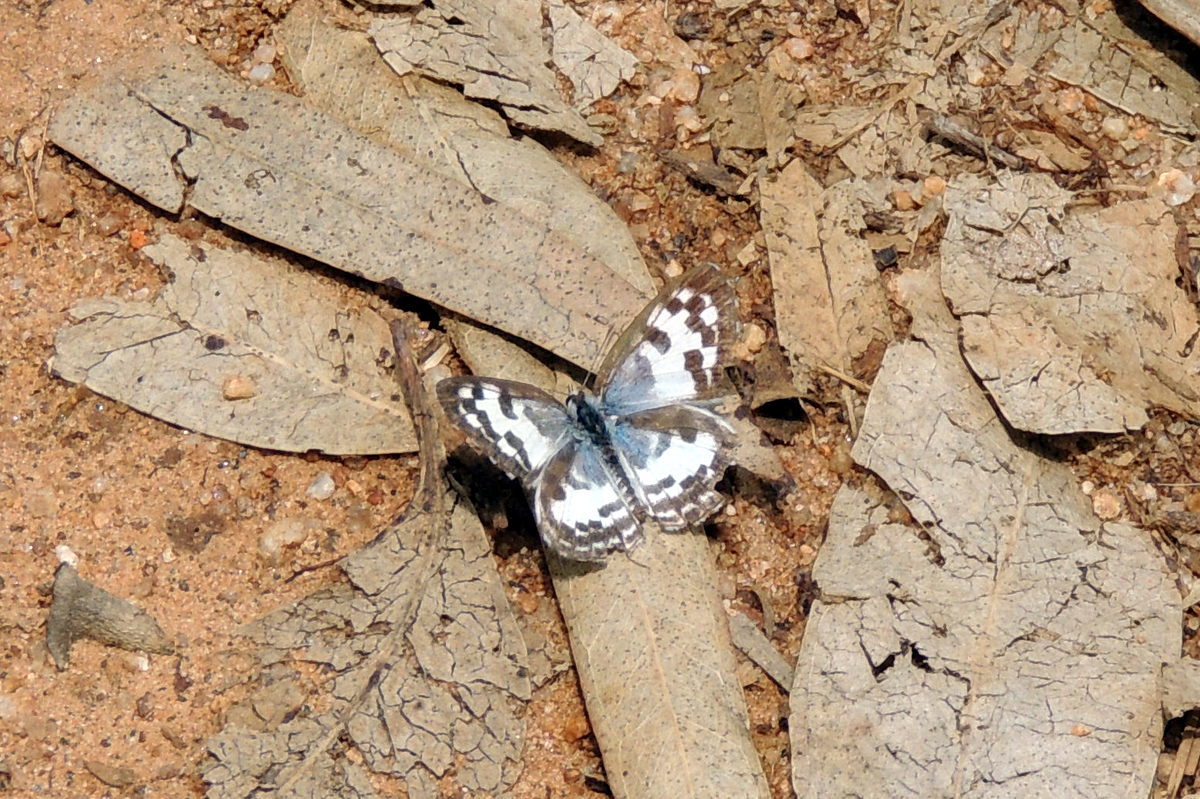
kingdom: Animalia
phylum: Arthropoda
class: Insecta
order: Lepidoptera
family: Lycaenidae
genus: Castalius
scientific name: Castalius rosimon
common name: Common pierrot
